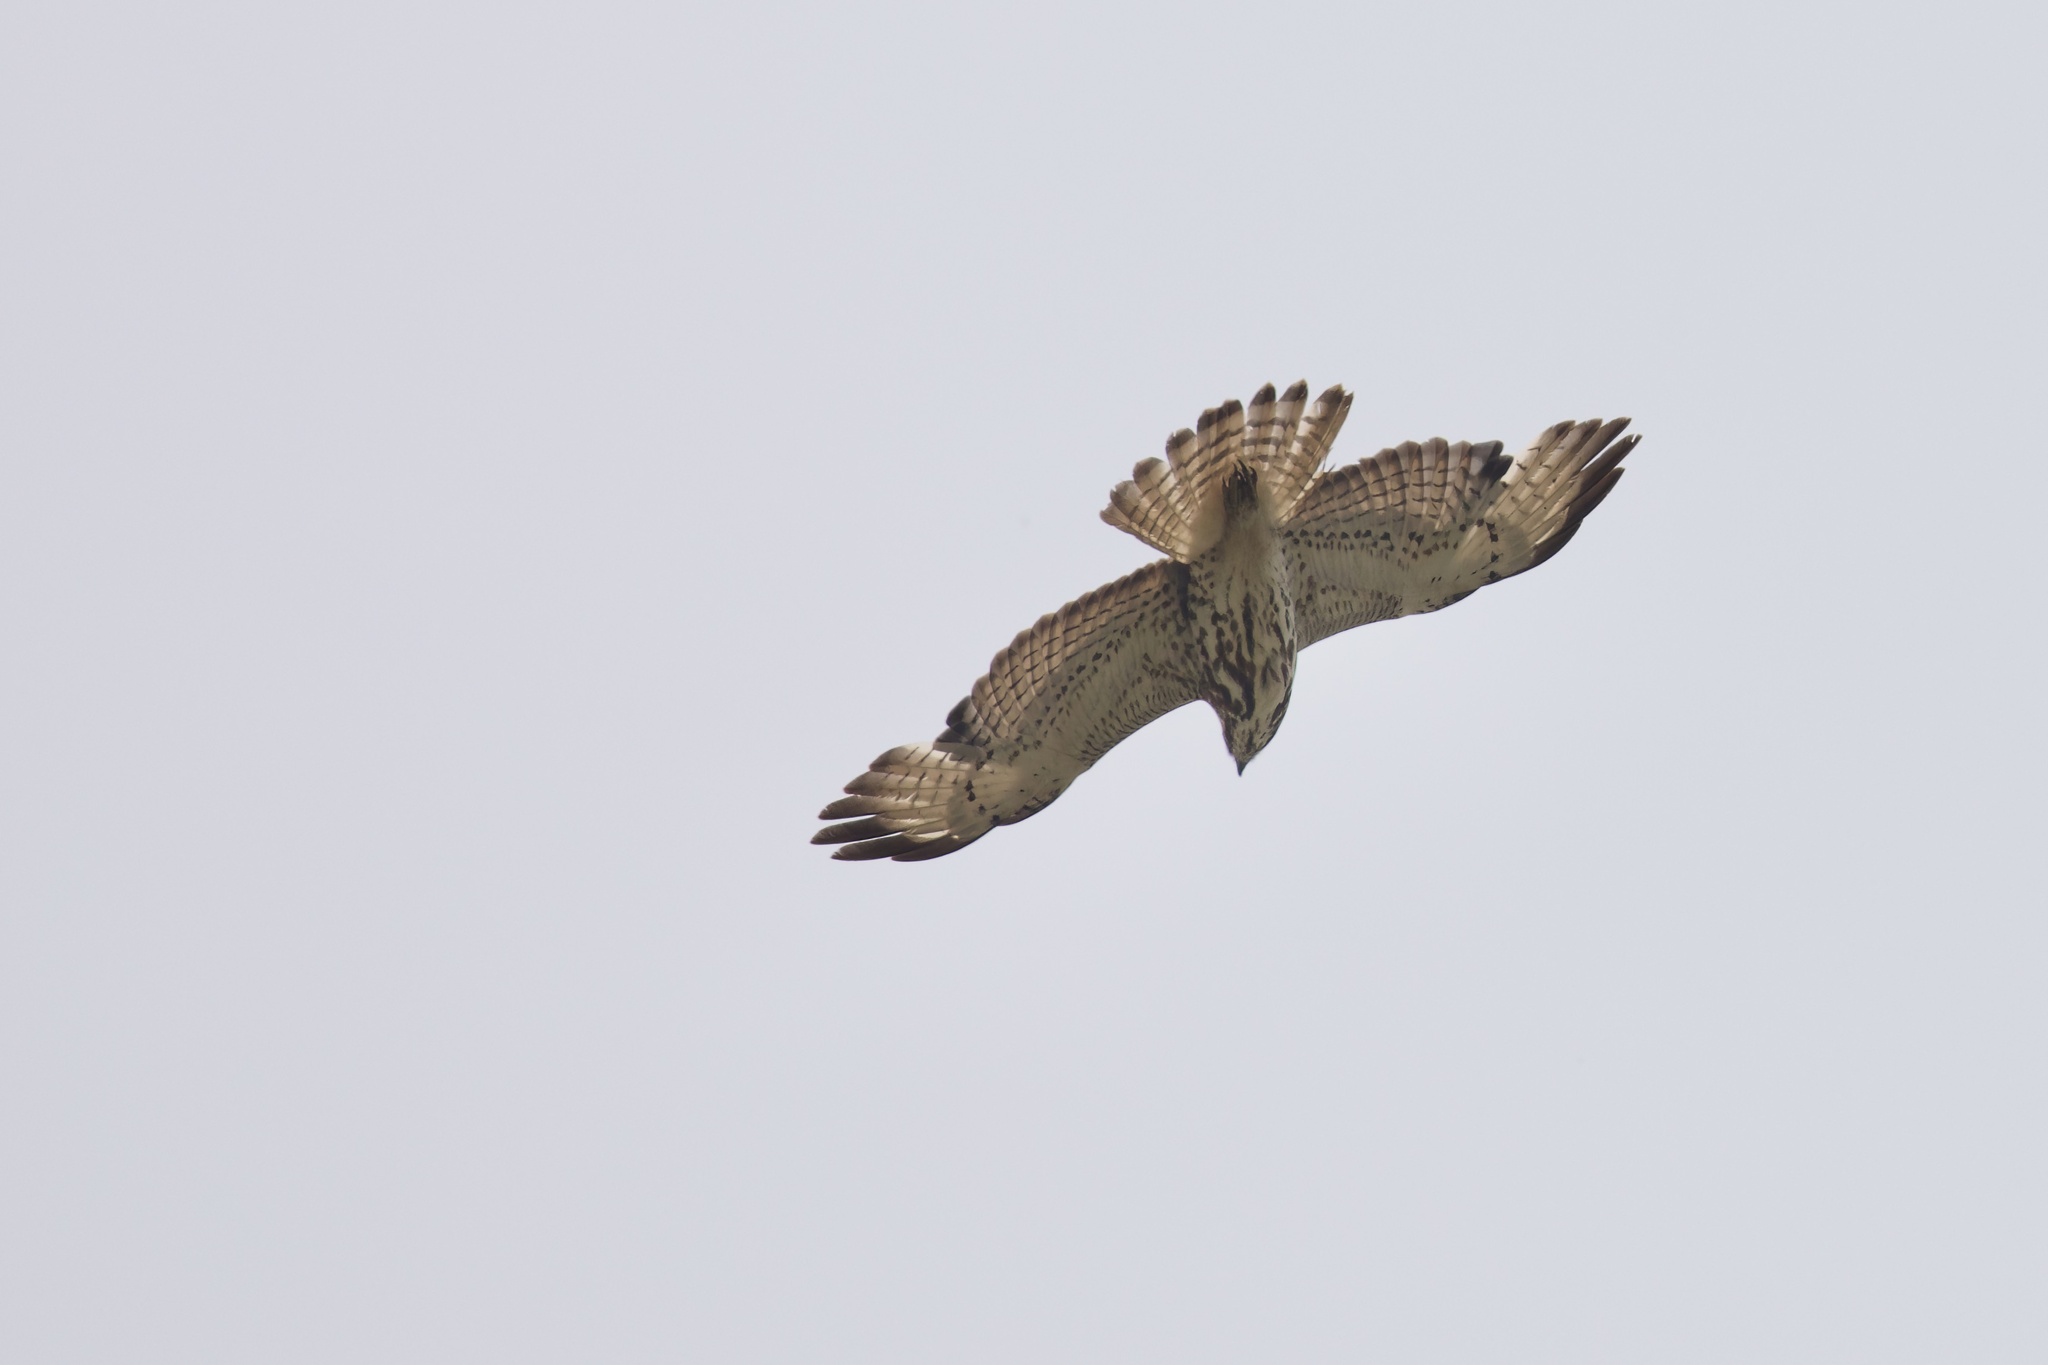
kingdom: Animalia
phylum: Chordata
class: Aves
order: Accipitriformes
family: Accipitridae
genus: Buteo
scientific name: Buteo jamaicensis
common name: Red-tailed hawk
